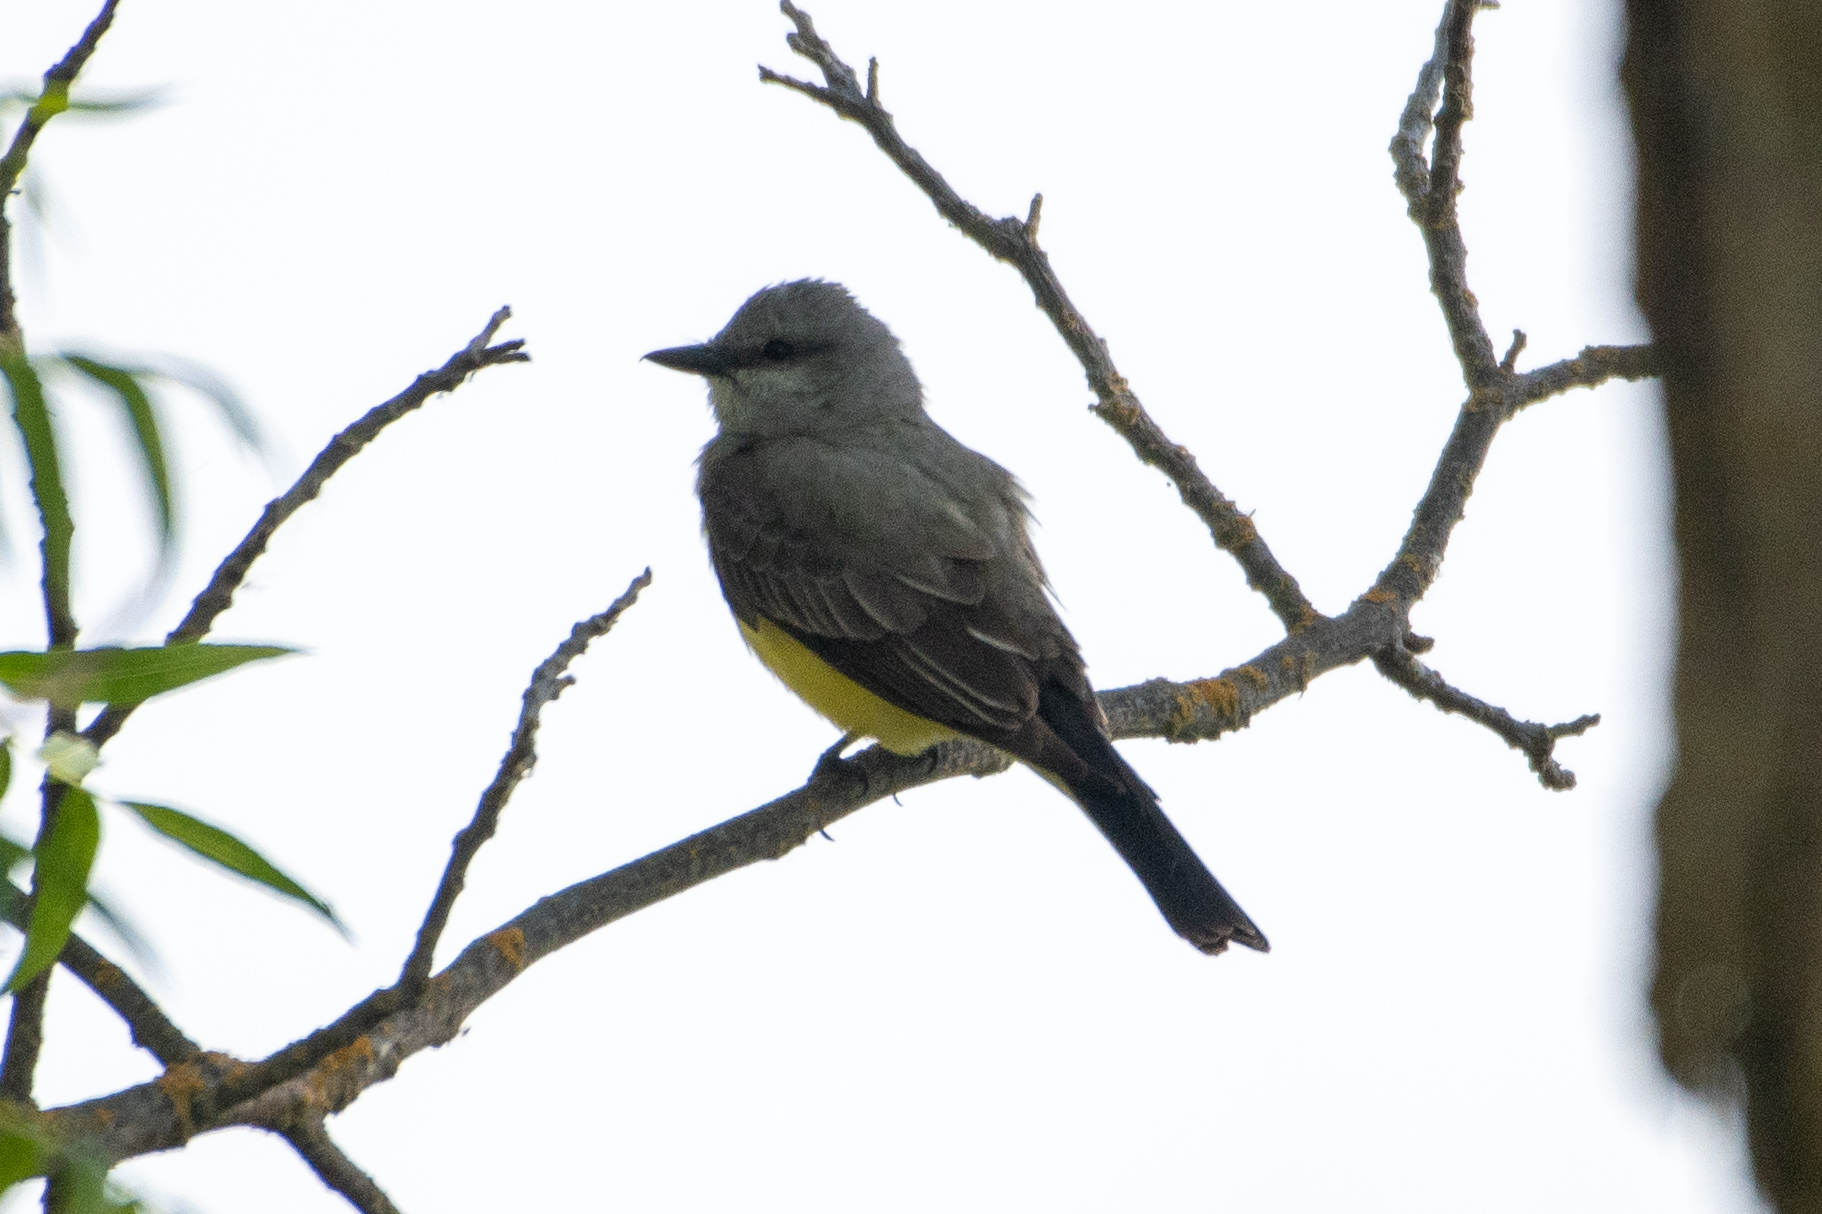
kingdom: Animalia
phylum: Chordata
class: Aves
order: Passeriformes
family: Tyrannidae
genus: Tyrannus
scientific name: Tyrannus verticalis
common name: Western kingbird
